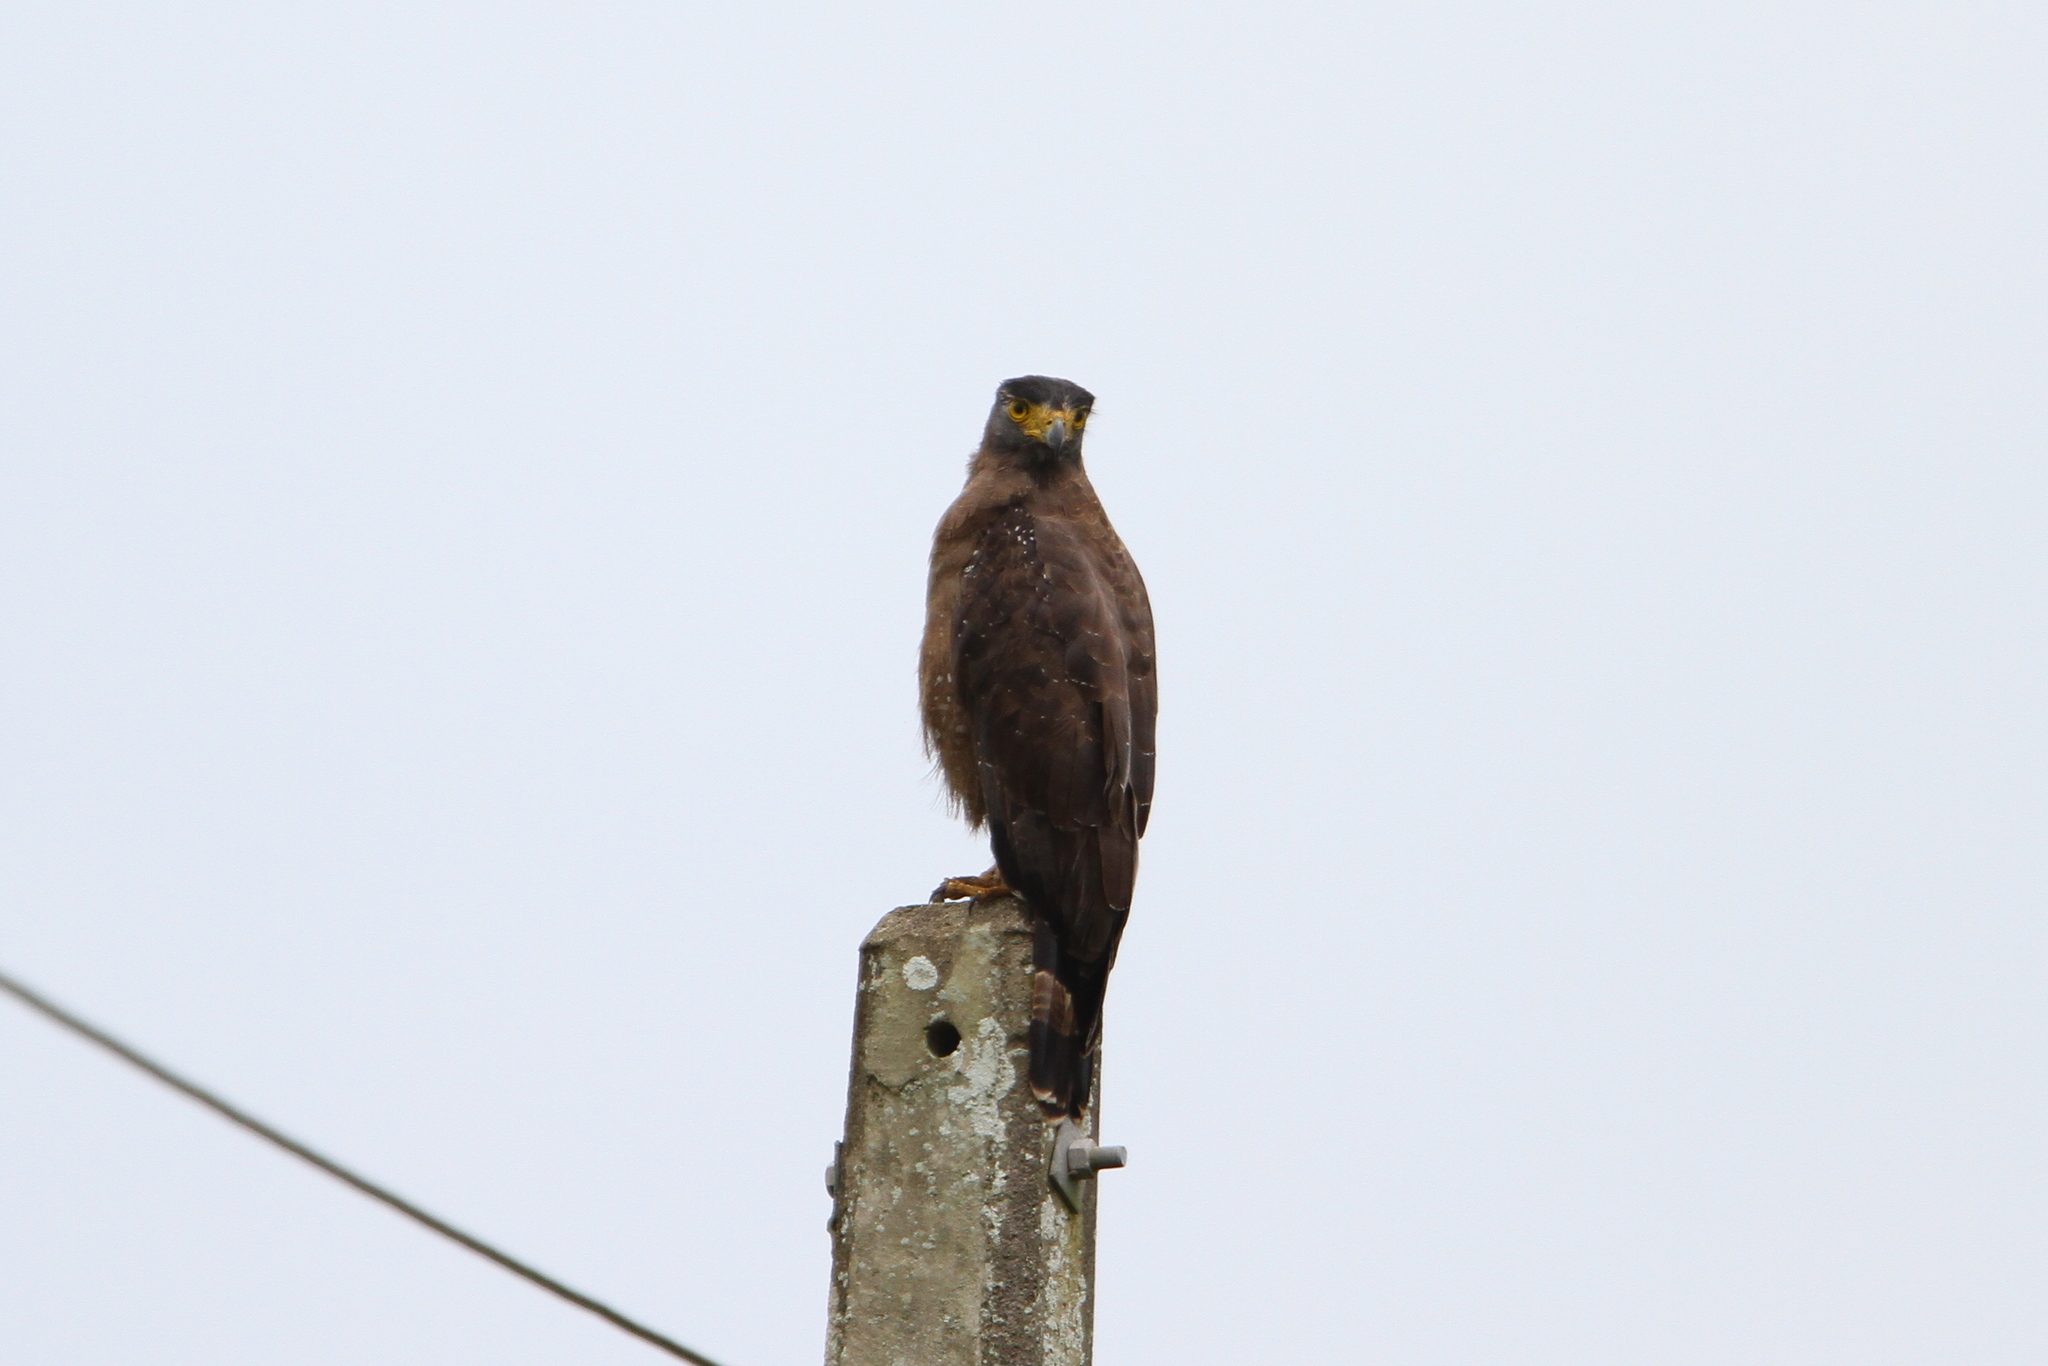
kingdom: Animalia
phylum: Chordata
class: Aves
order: Accipitriformes
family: Accipitridae
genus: Spilornis
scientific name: Spilornis cheela
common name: Crested serpent eagle
